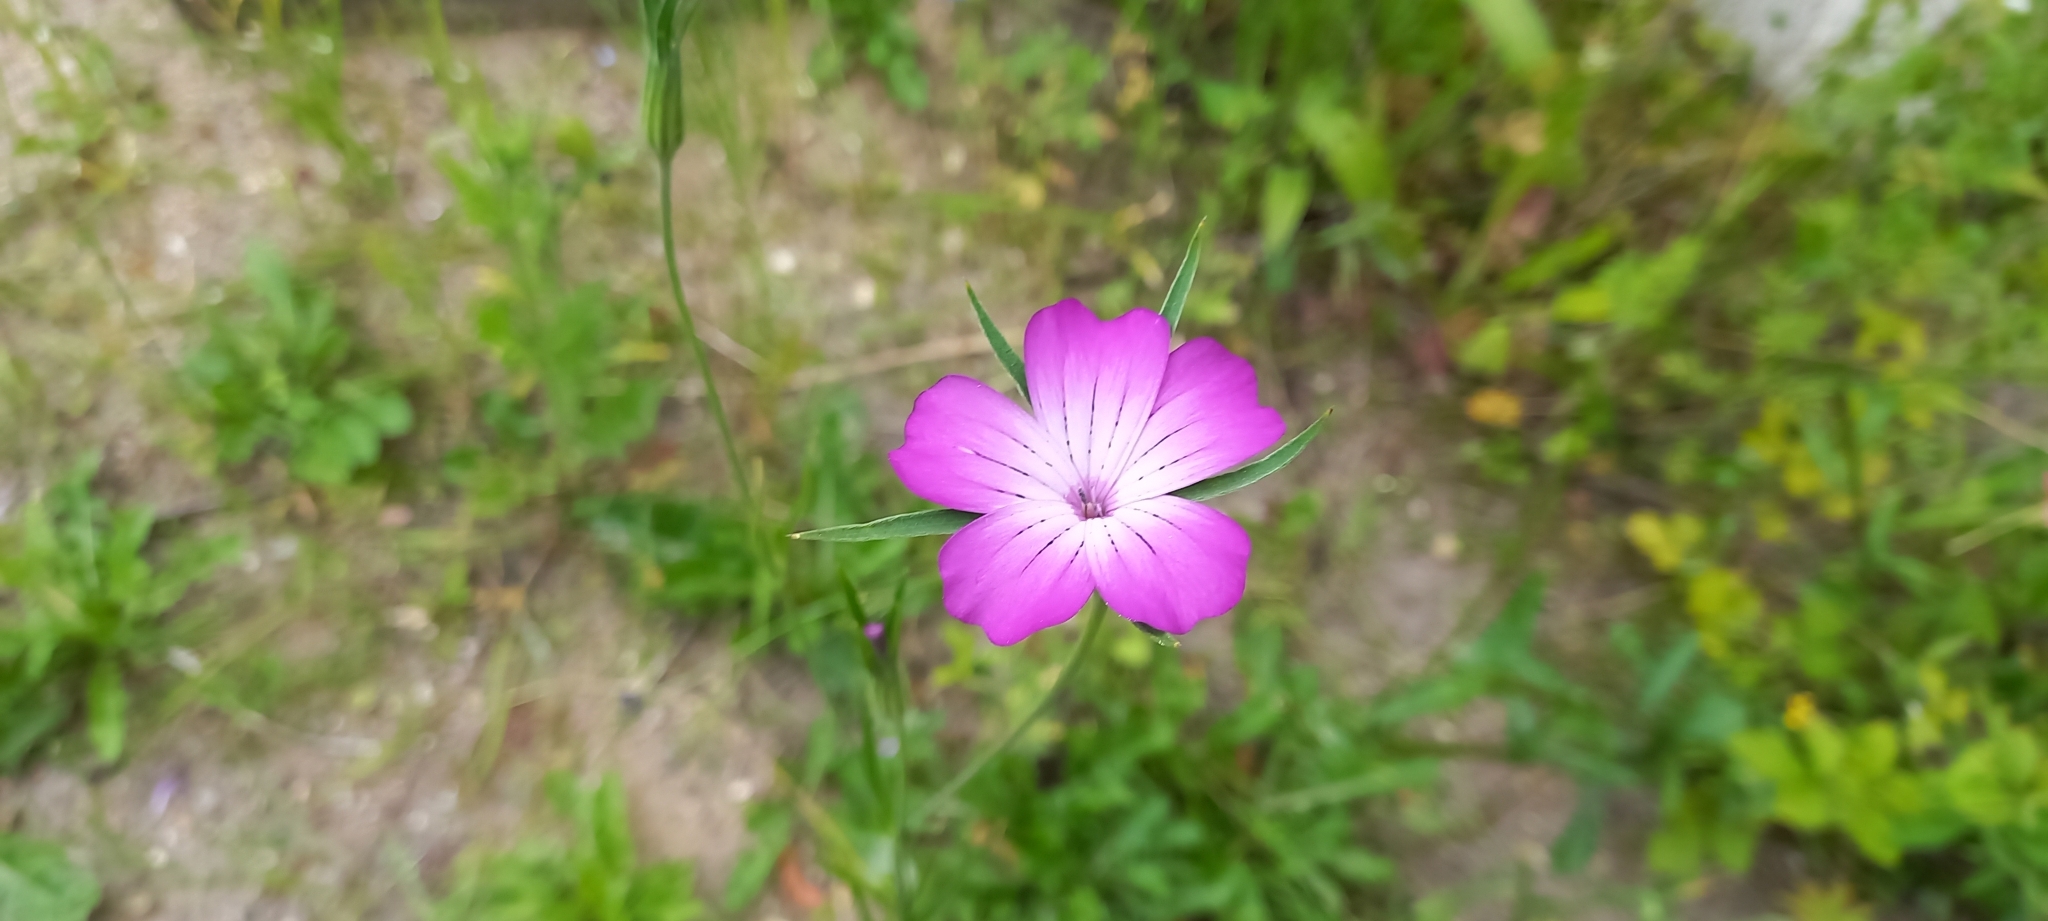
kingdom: Plantae
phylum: Tracheophyta
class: Magnoliopsida
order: Caryophyllales
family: Caryophyllaceae
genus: Agrostemma
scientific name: Agrostemma githago
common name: Common corncockle
